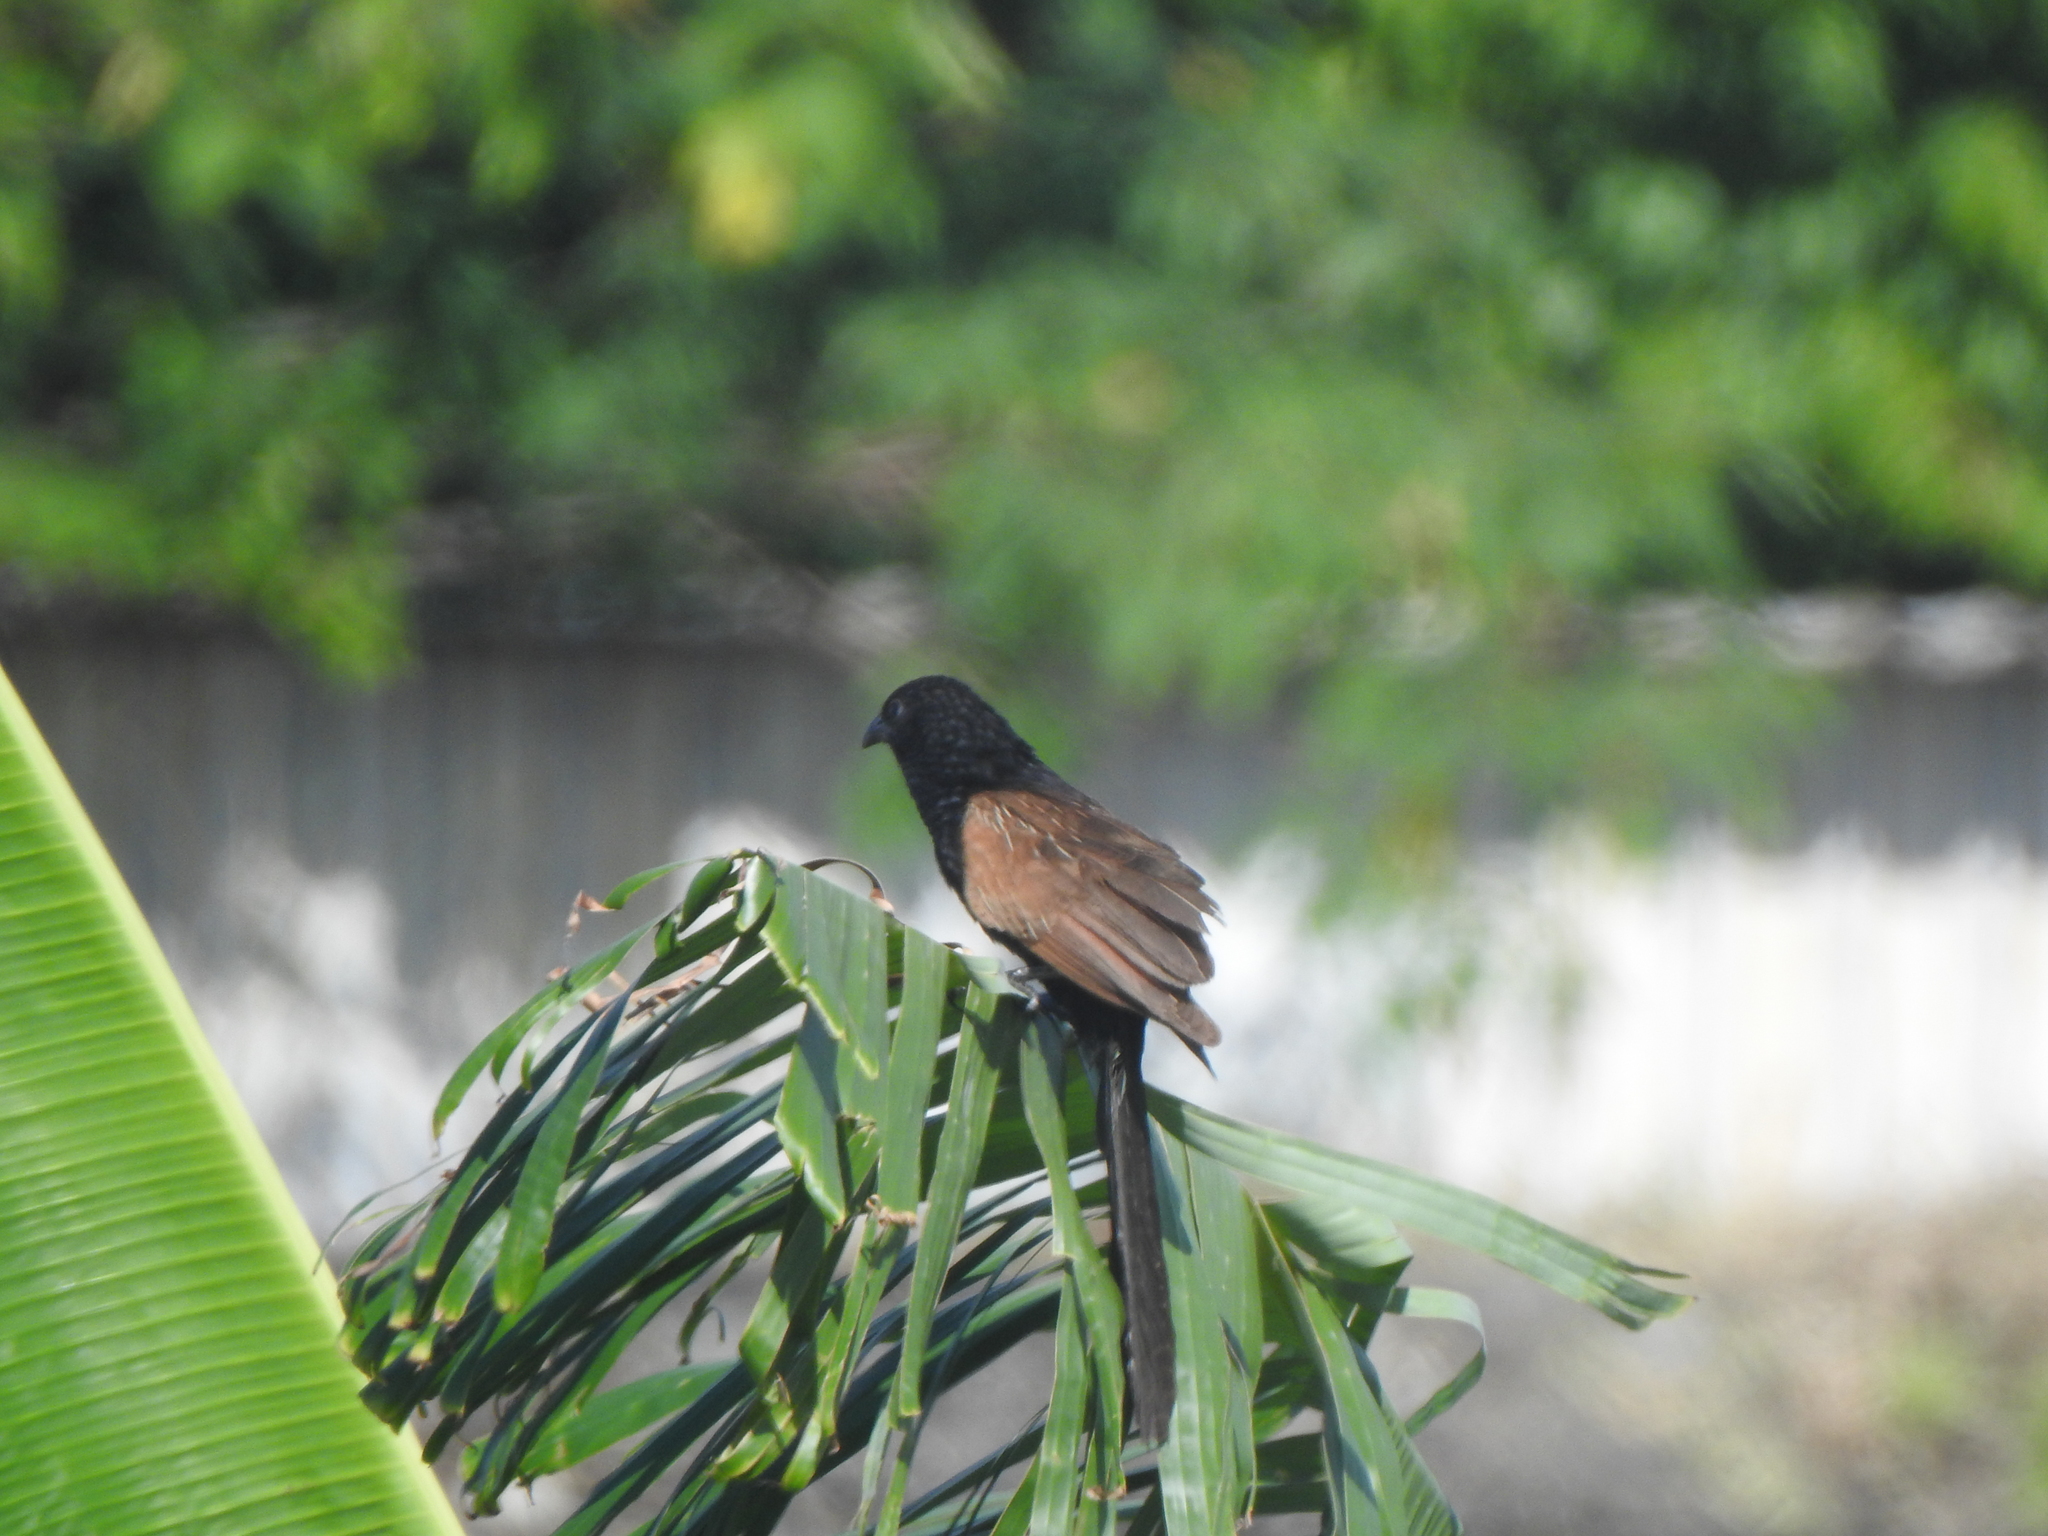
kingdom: Animalia
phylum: Chordata
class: Aves
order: Cuculiformes
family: Cuculidae
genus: Centropus
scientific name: Centropus bengalensis
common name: Lesser coucal
